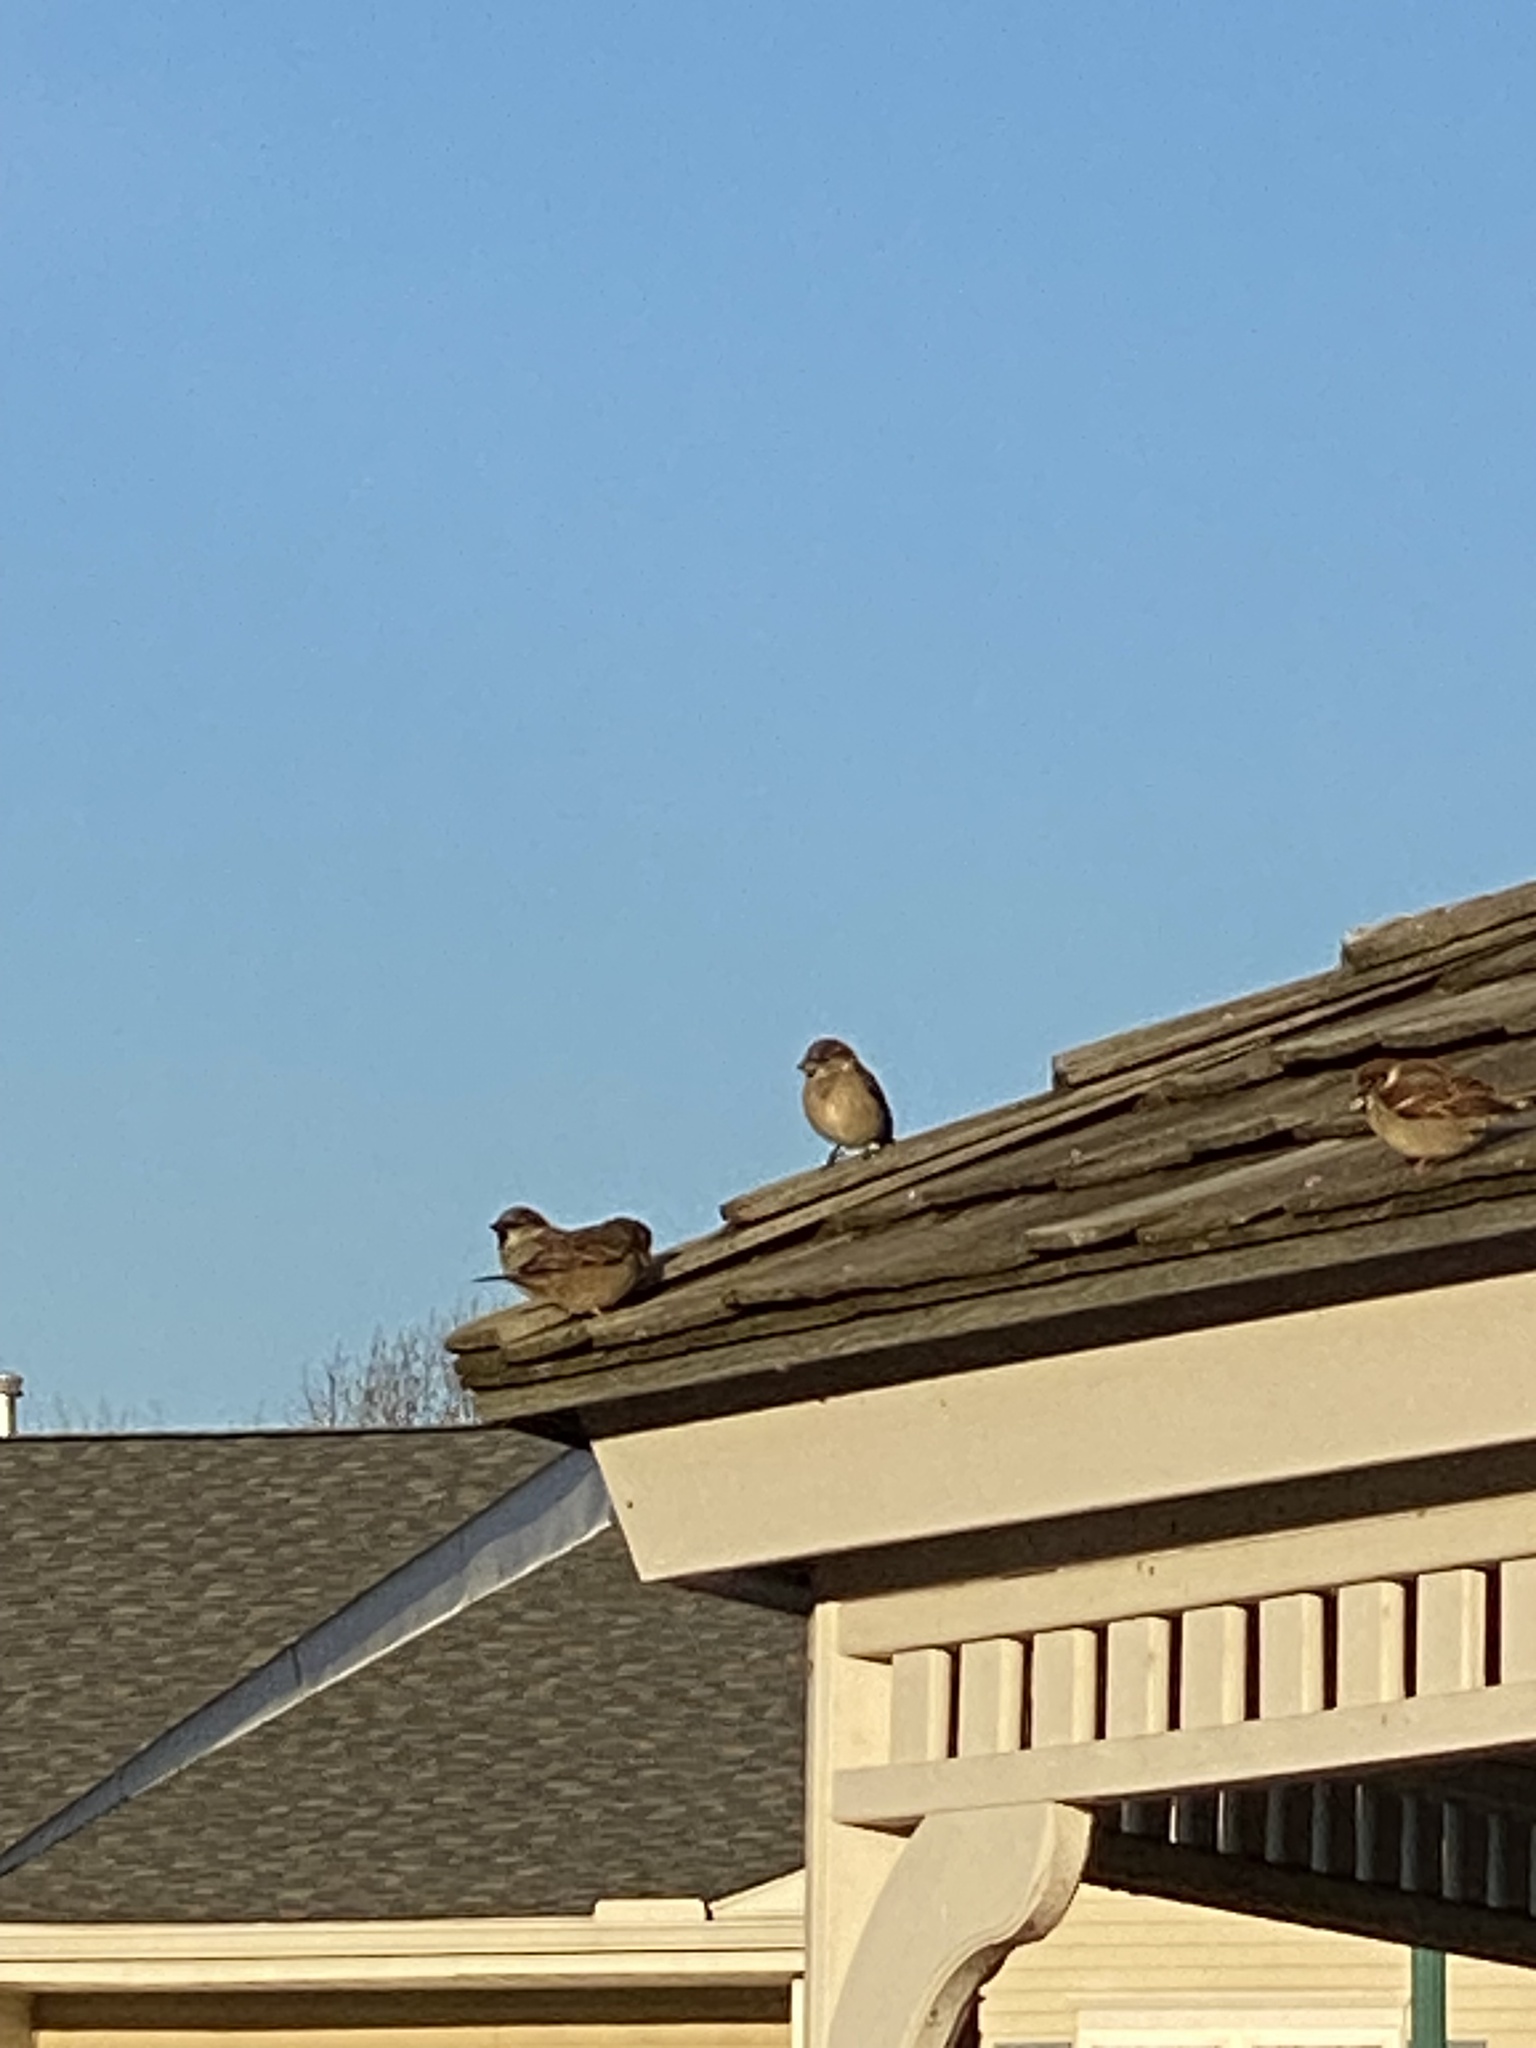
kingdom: Animalia
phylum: Chordata
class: Aves
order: Passeriformes
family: Passeridae
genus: Passer
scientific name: Passer domesticus
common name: House sparrow
